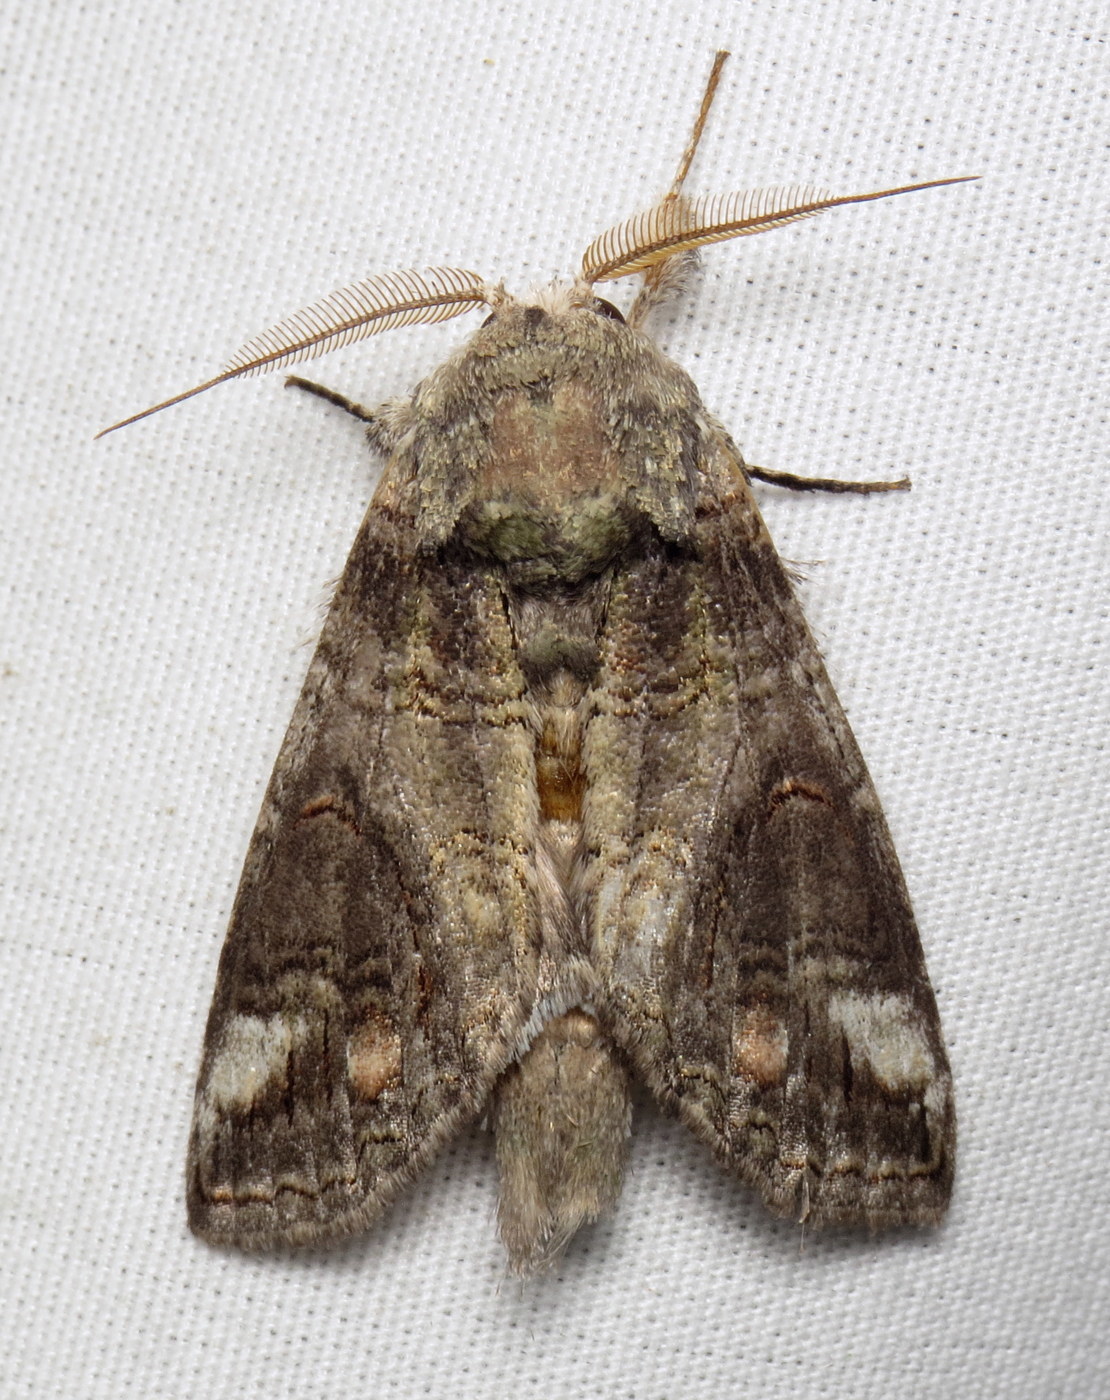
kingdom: Animalia
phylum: Arthropoda
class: Insecta
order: Lepidoptera
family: Notodontidae
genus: Heterocampa
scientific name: Heterocampa obliqua
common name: Oblique heterocampa
